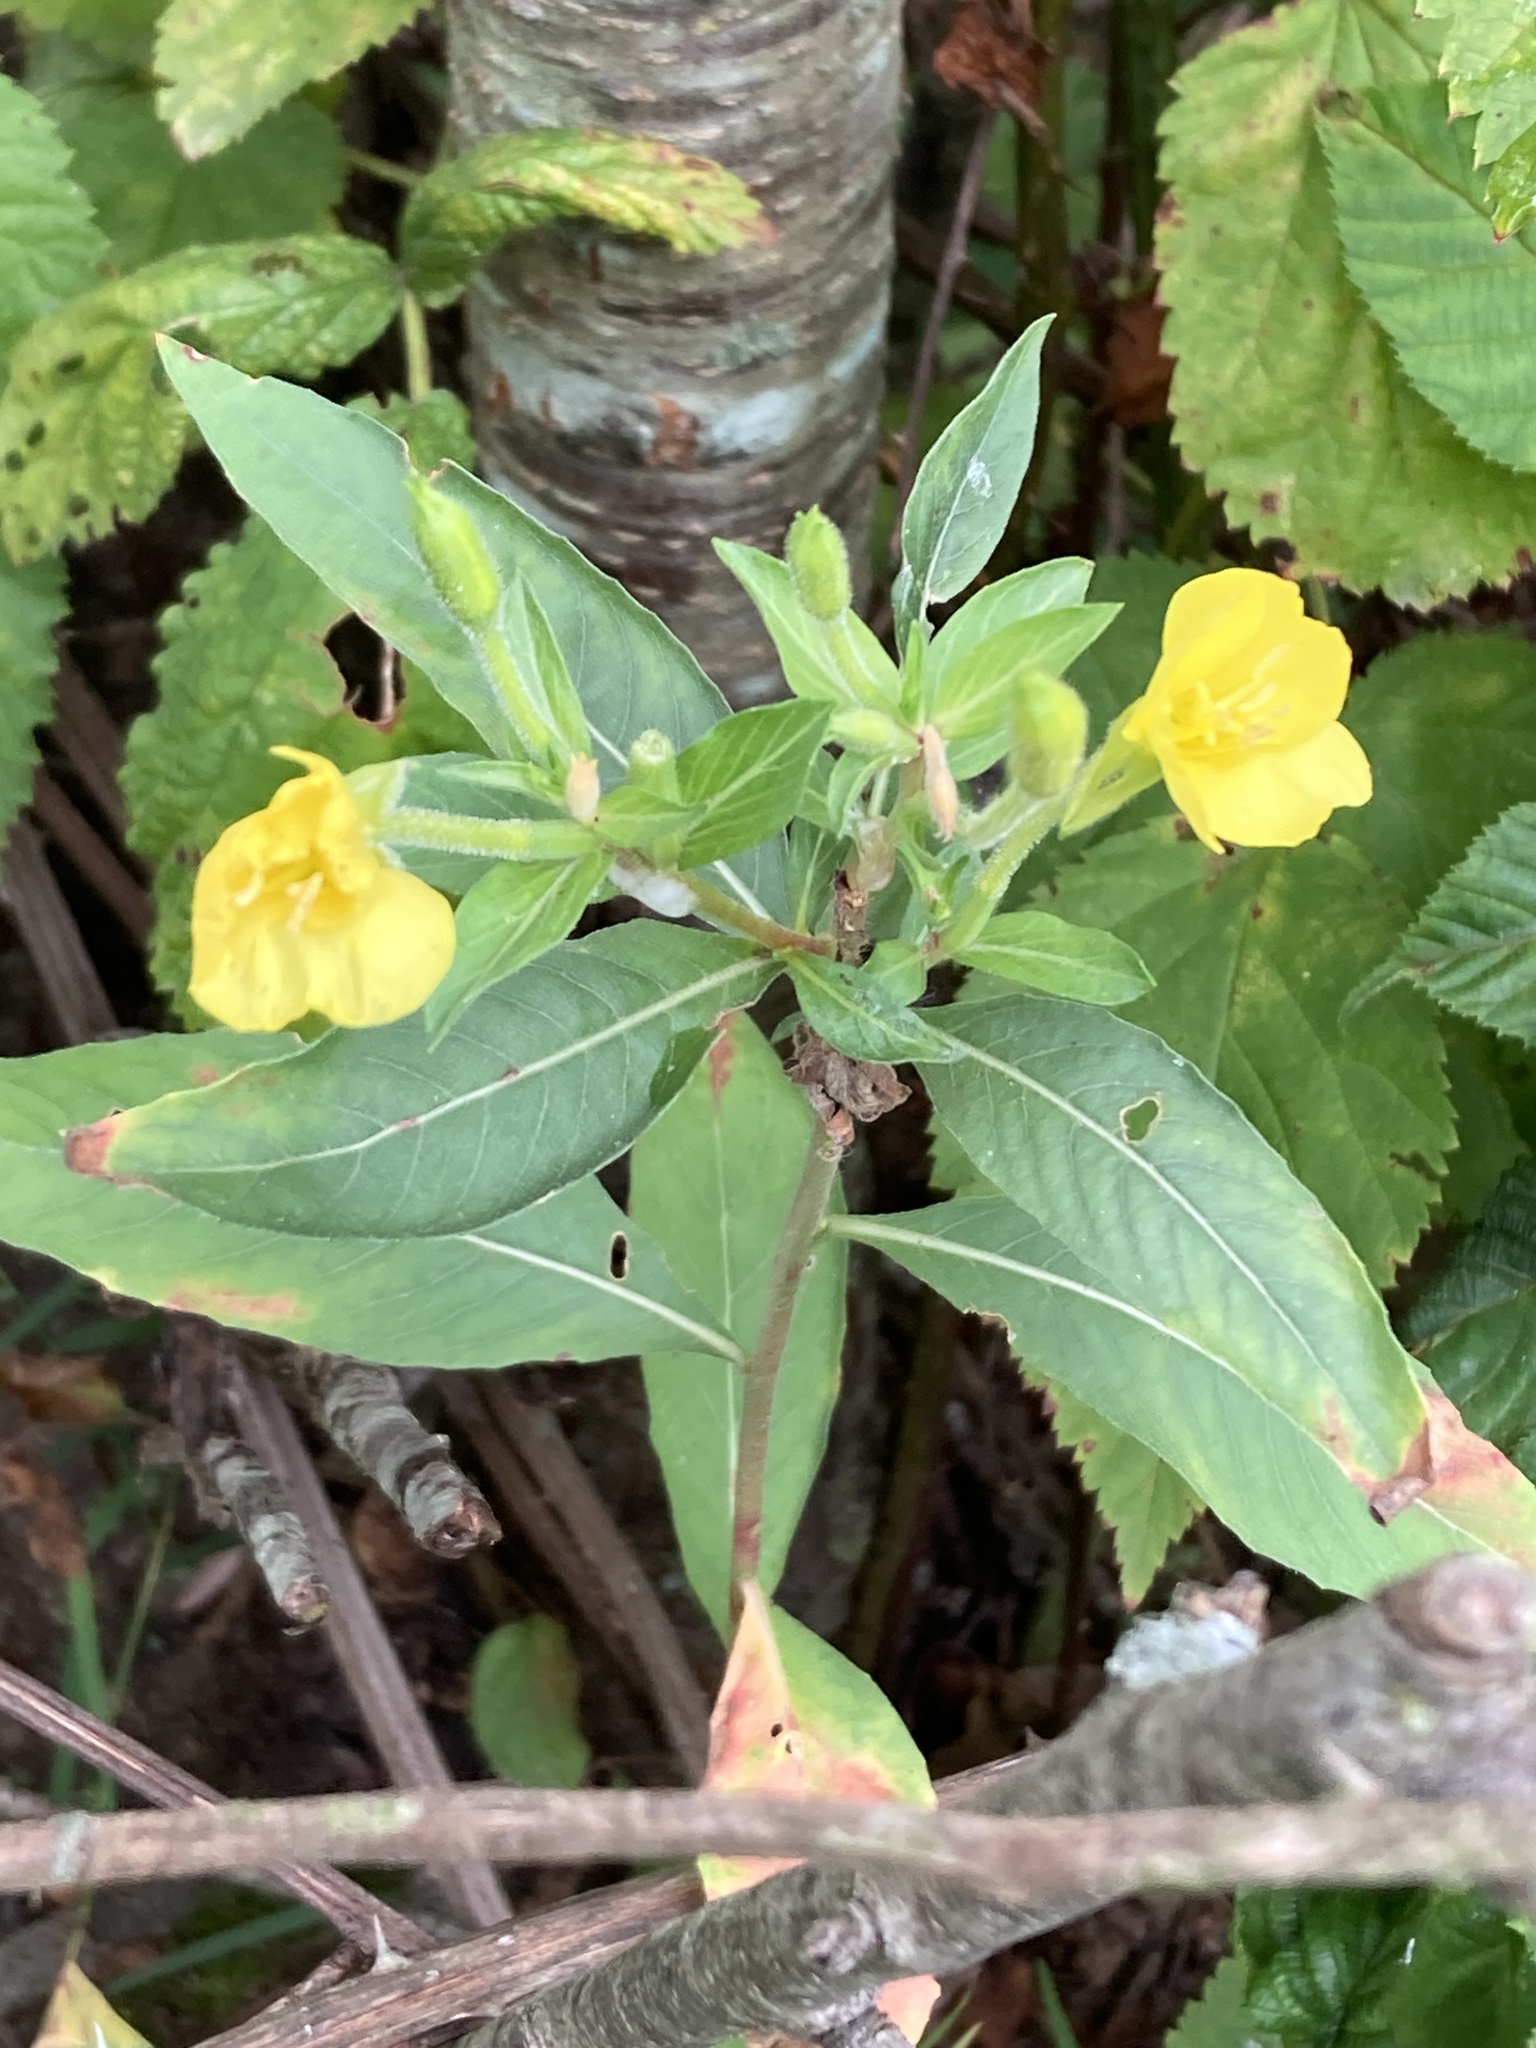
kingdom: Plantae
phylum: Tracheophyta
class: Magnoliopsida
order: Myrtales
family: Onagraceae
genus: Oenothera
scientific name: Oenothera biennis
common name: Common evening-primrose
